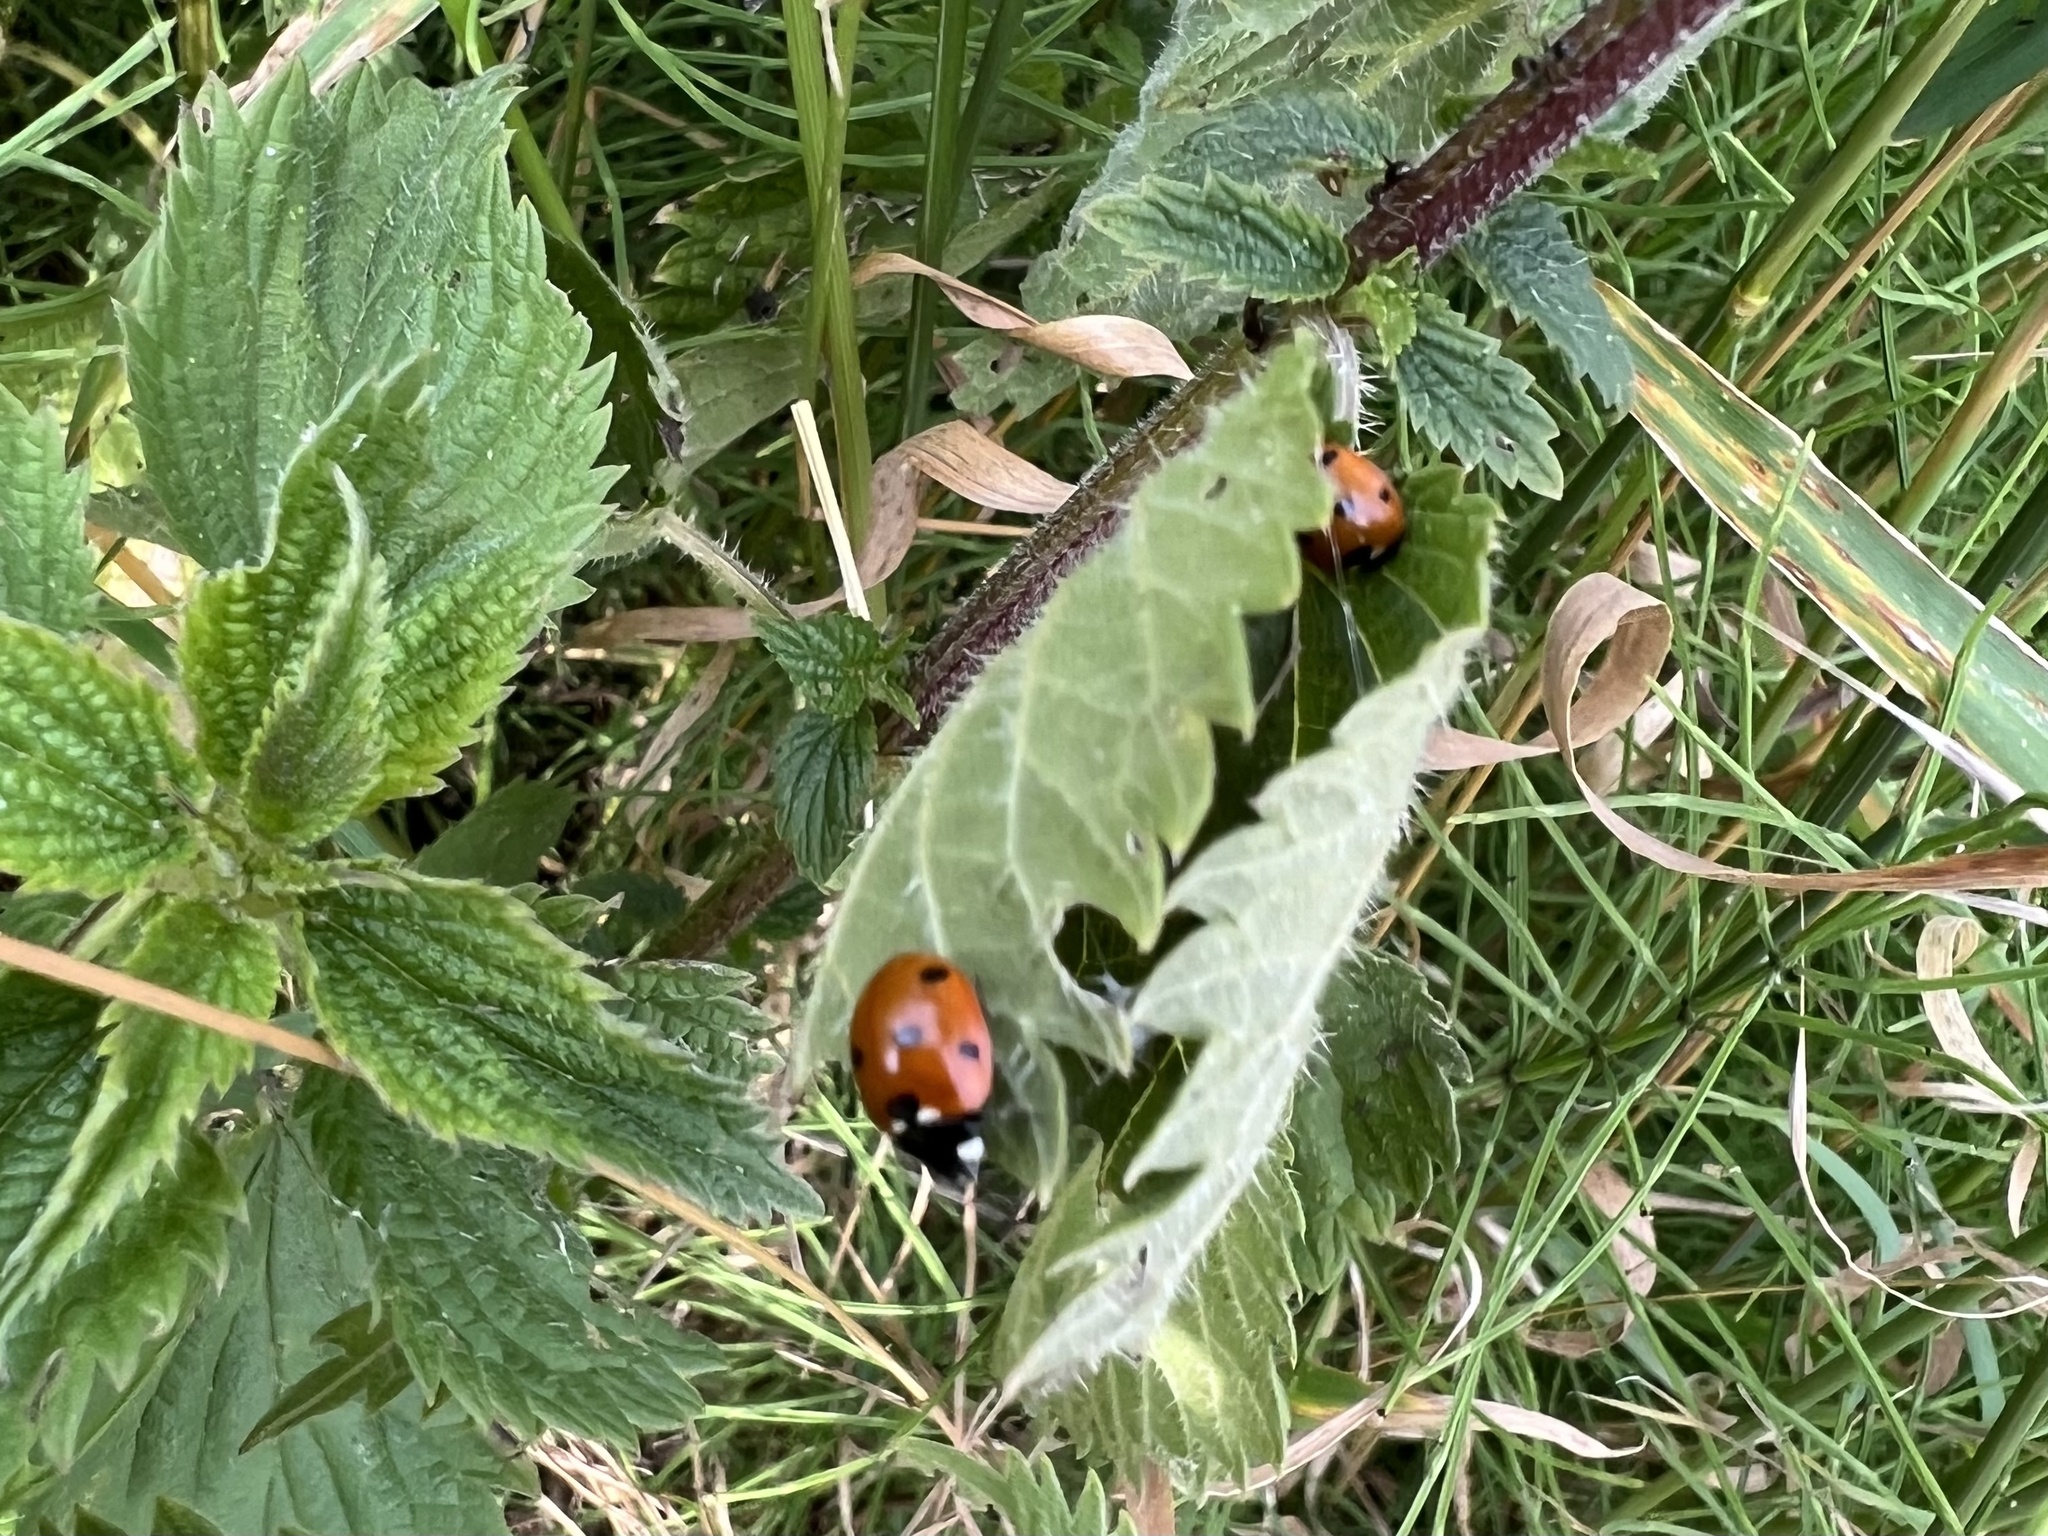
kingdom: Animalia
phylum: Arthropoda
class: Insecta
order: Coleoptera
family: Coccinellidae
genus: Coccinella
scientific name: Coccinella septempunctata
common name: Sevenspotted lady beetle
